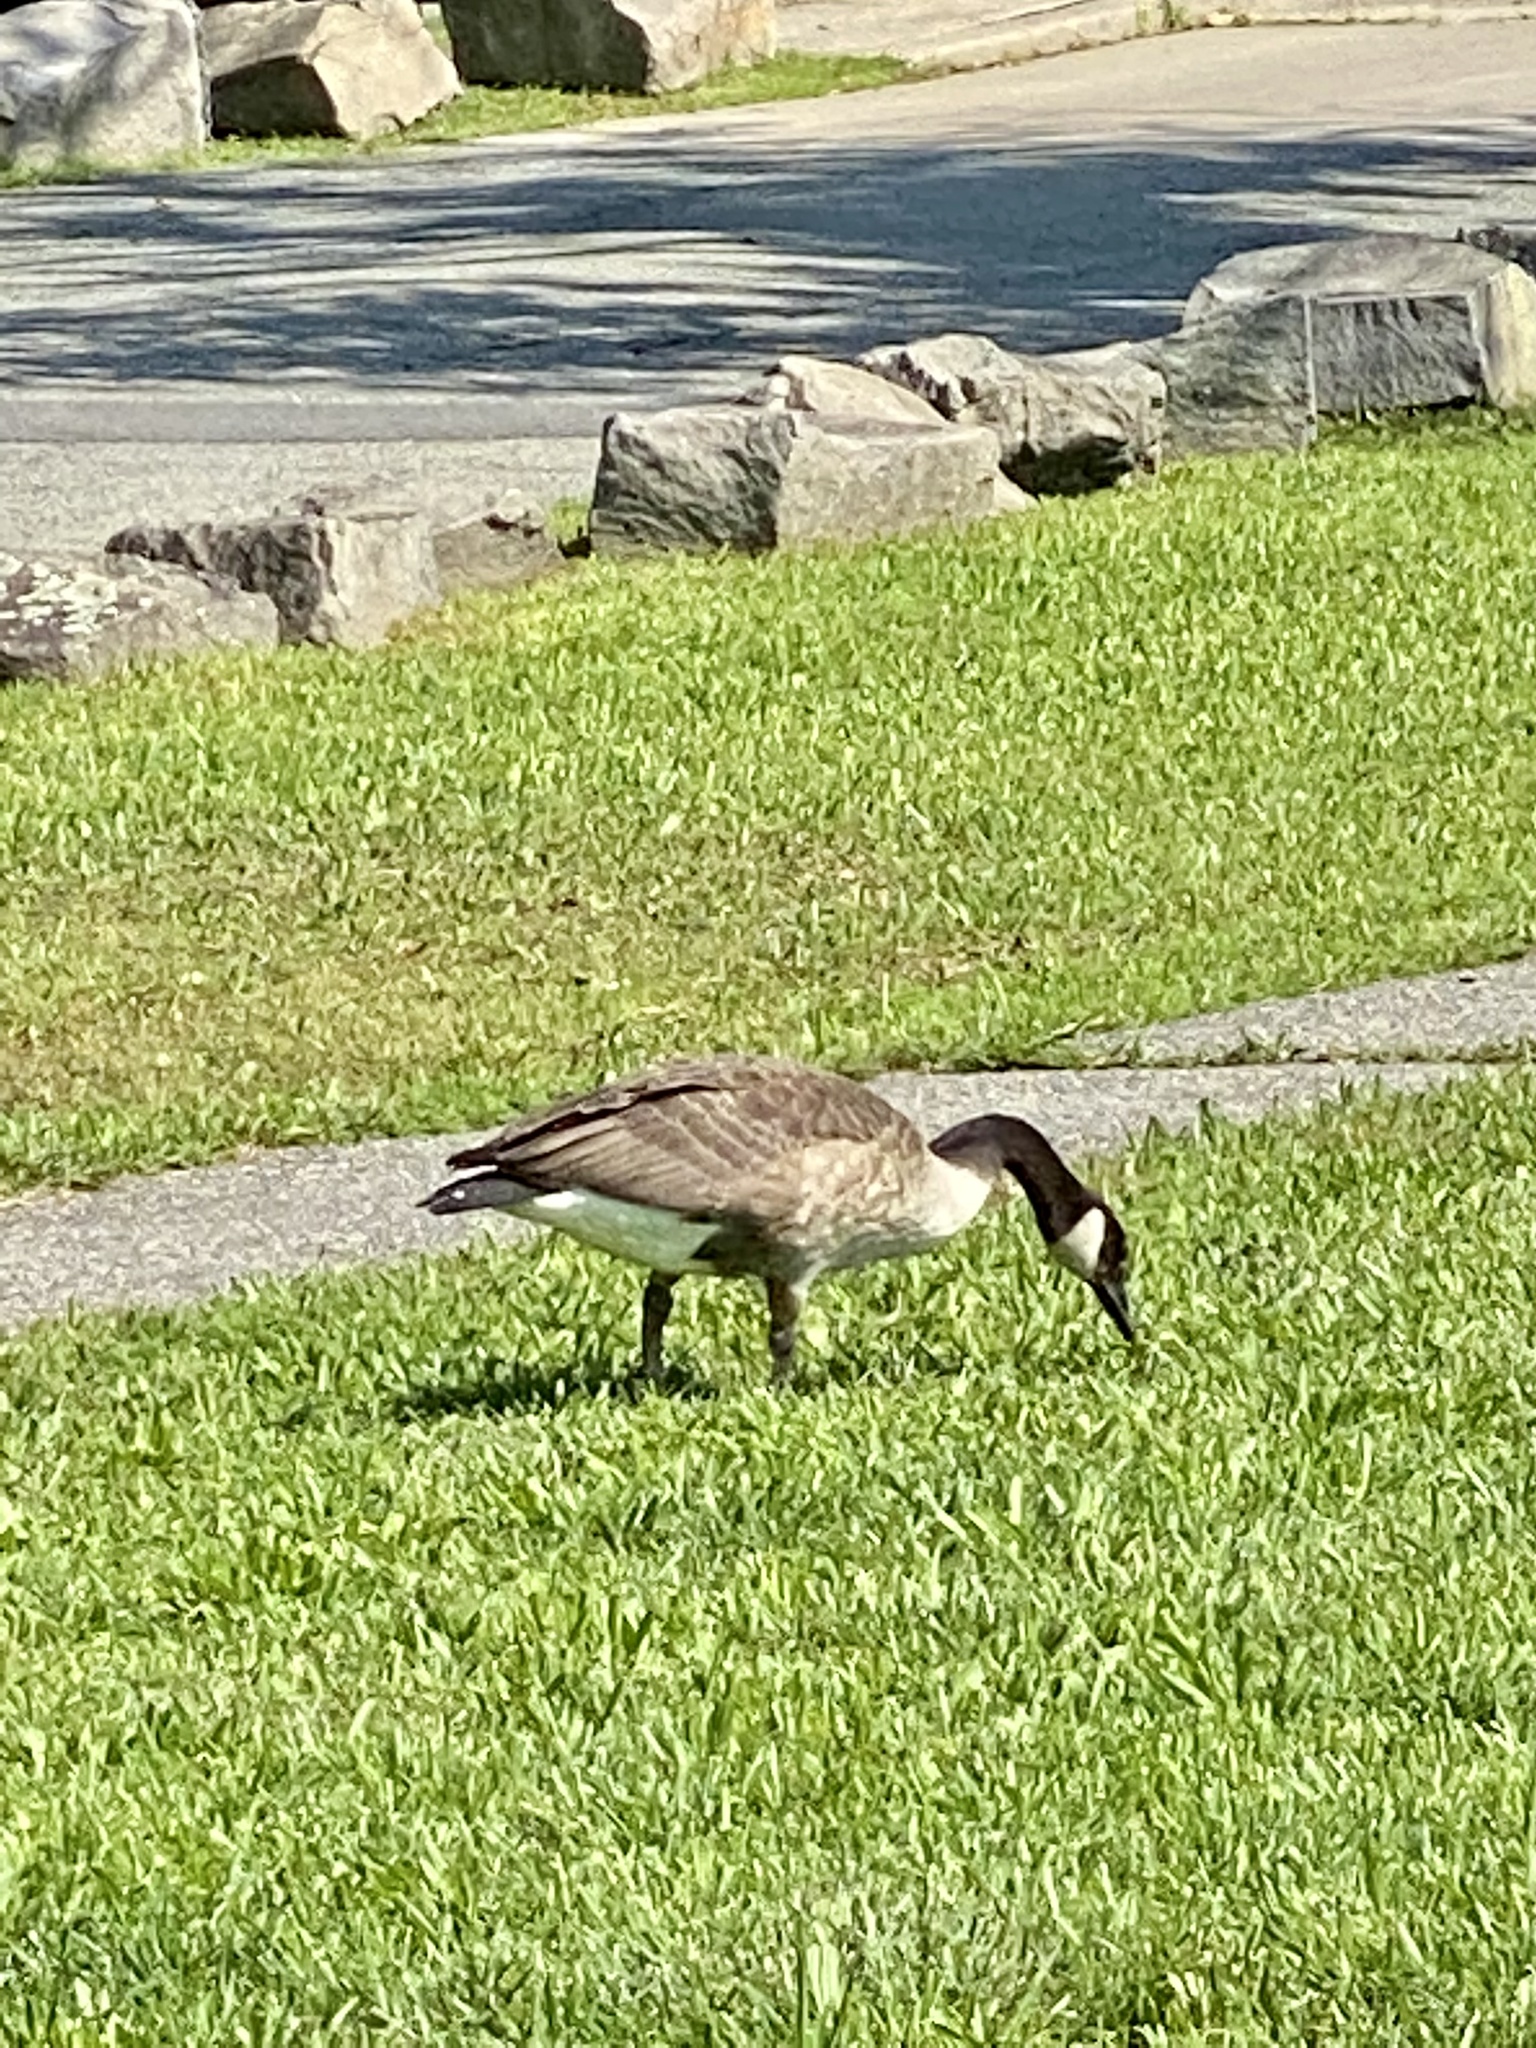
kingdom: Animalia
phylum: Chordata
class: Aves
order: Anseriformes
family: Anatidae
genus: Branta
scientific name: Branta canadensis
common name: Canada goose
